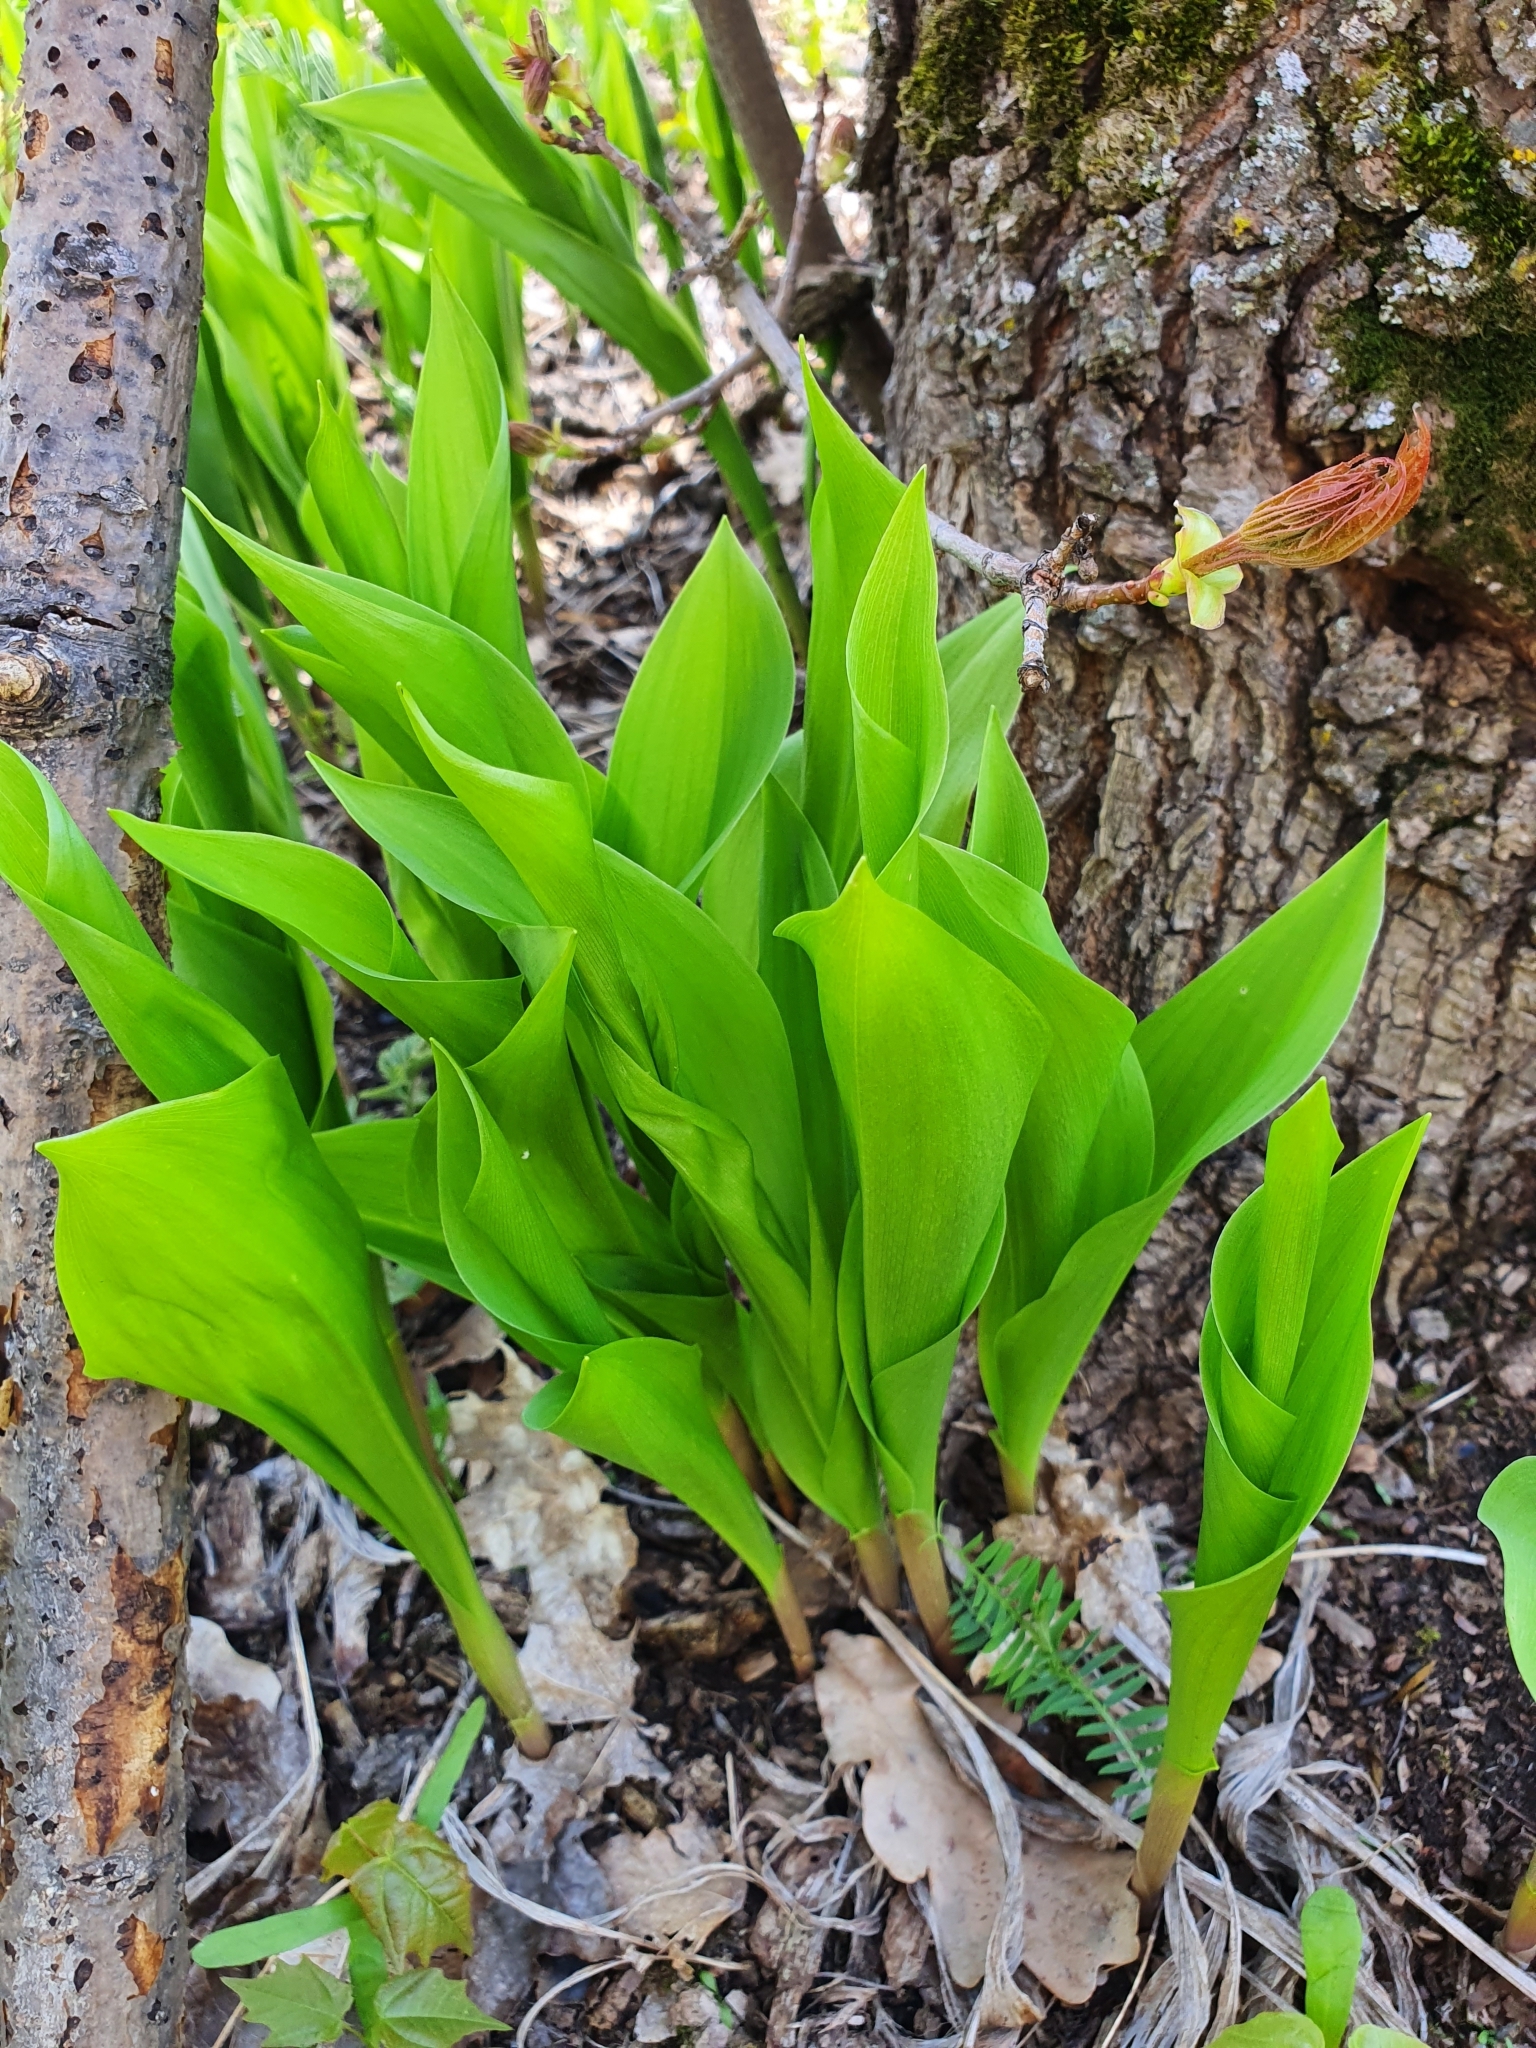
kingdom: Plantae
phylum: Tracheophyta
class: Liliopsida
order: Asparagales
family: Asparagaceae
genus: Convallaria
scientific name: Convallaria majalis
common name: Lily-of-the-valley
